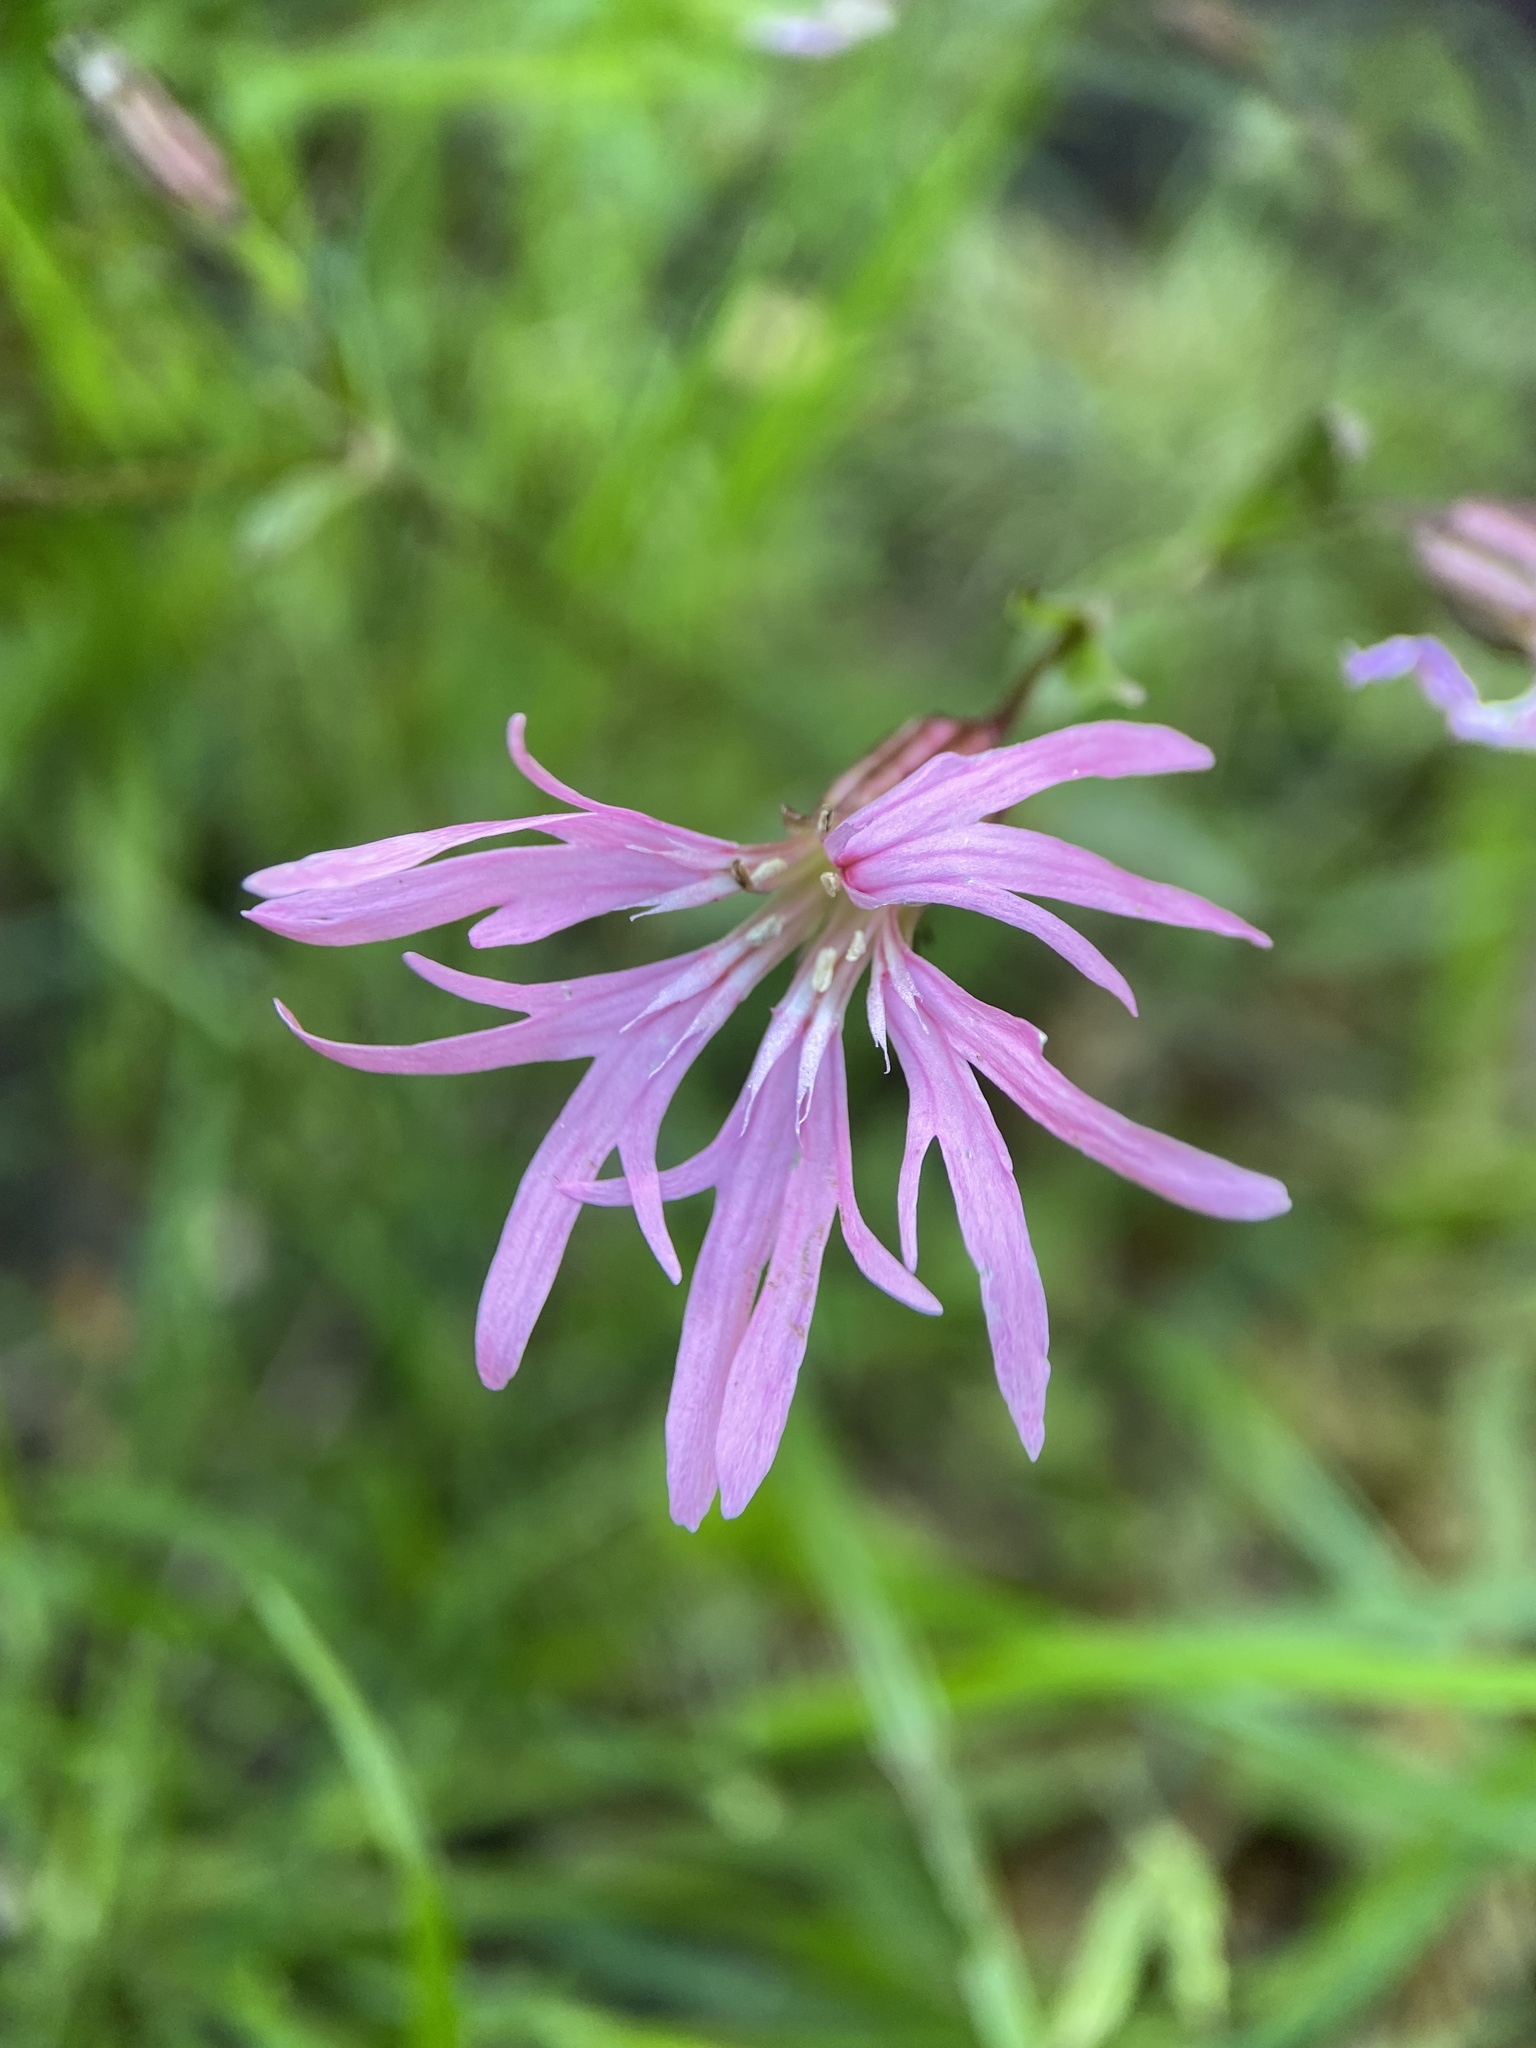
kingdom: Plantae
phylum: Tracheophyta
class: Magnoliopsida
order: Caryophyllales
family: Caryophyllaceae
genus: Silene
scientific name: Silene flos-cuculi
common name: Ragged-robin
